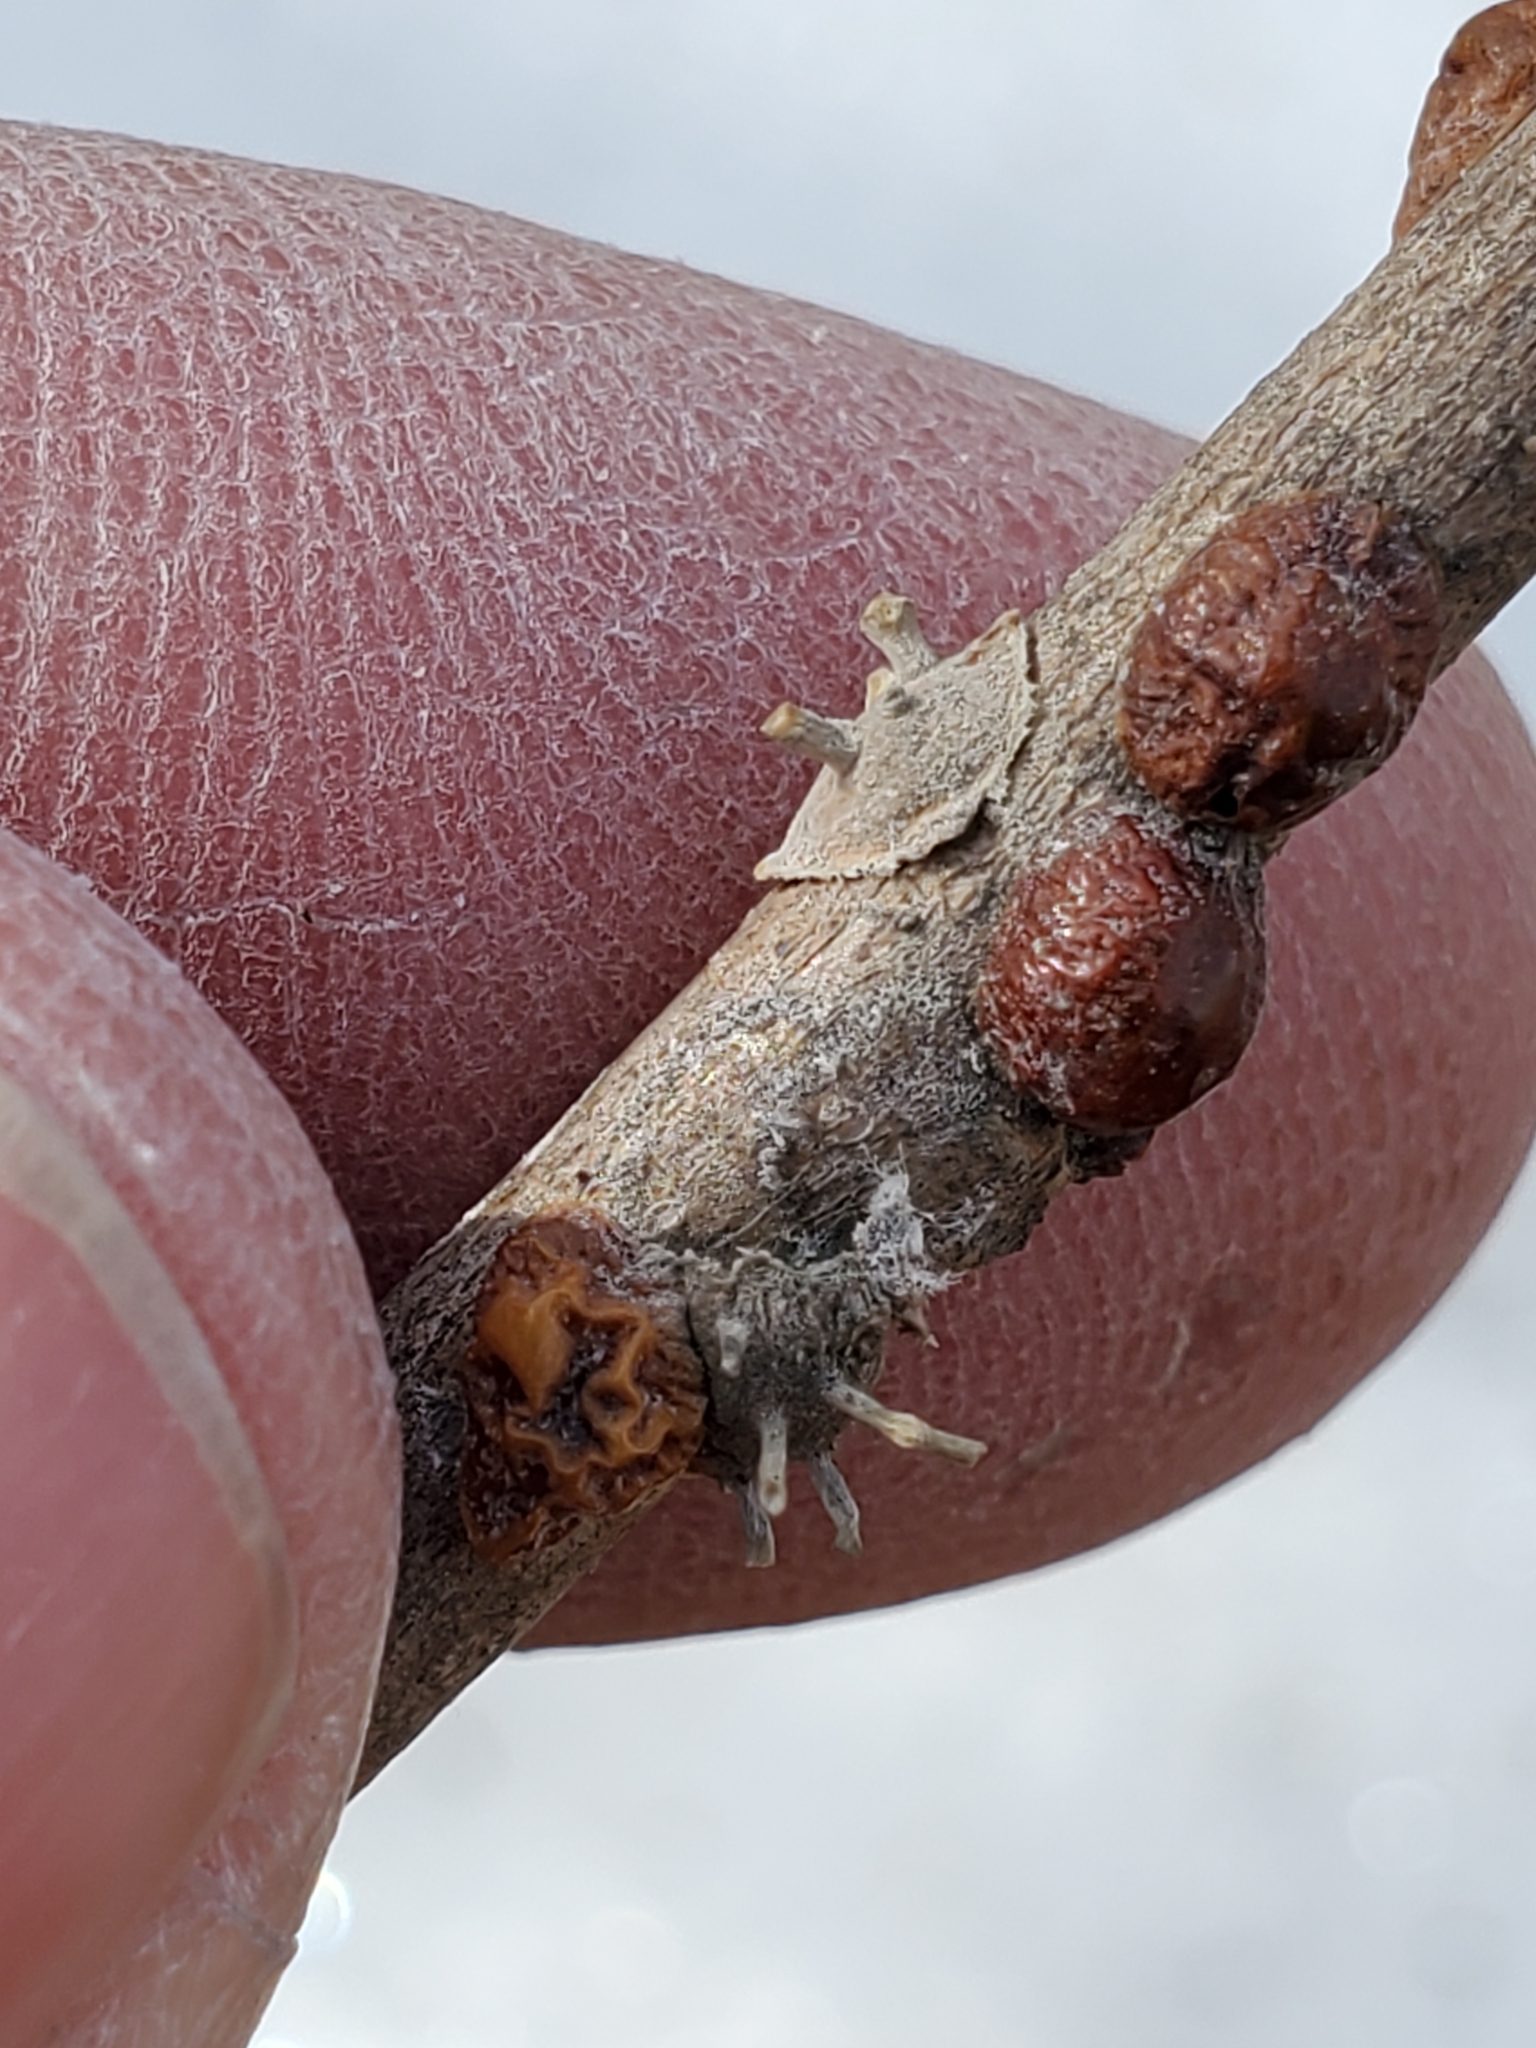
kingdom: Fungi
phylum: Ascomycota
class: Sordariomycetes
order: Hypocreales
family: Ophiocordycipitaceae
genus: Ophiocordyceps
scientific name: Ophiocordyceps clavulata
